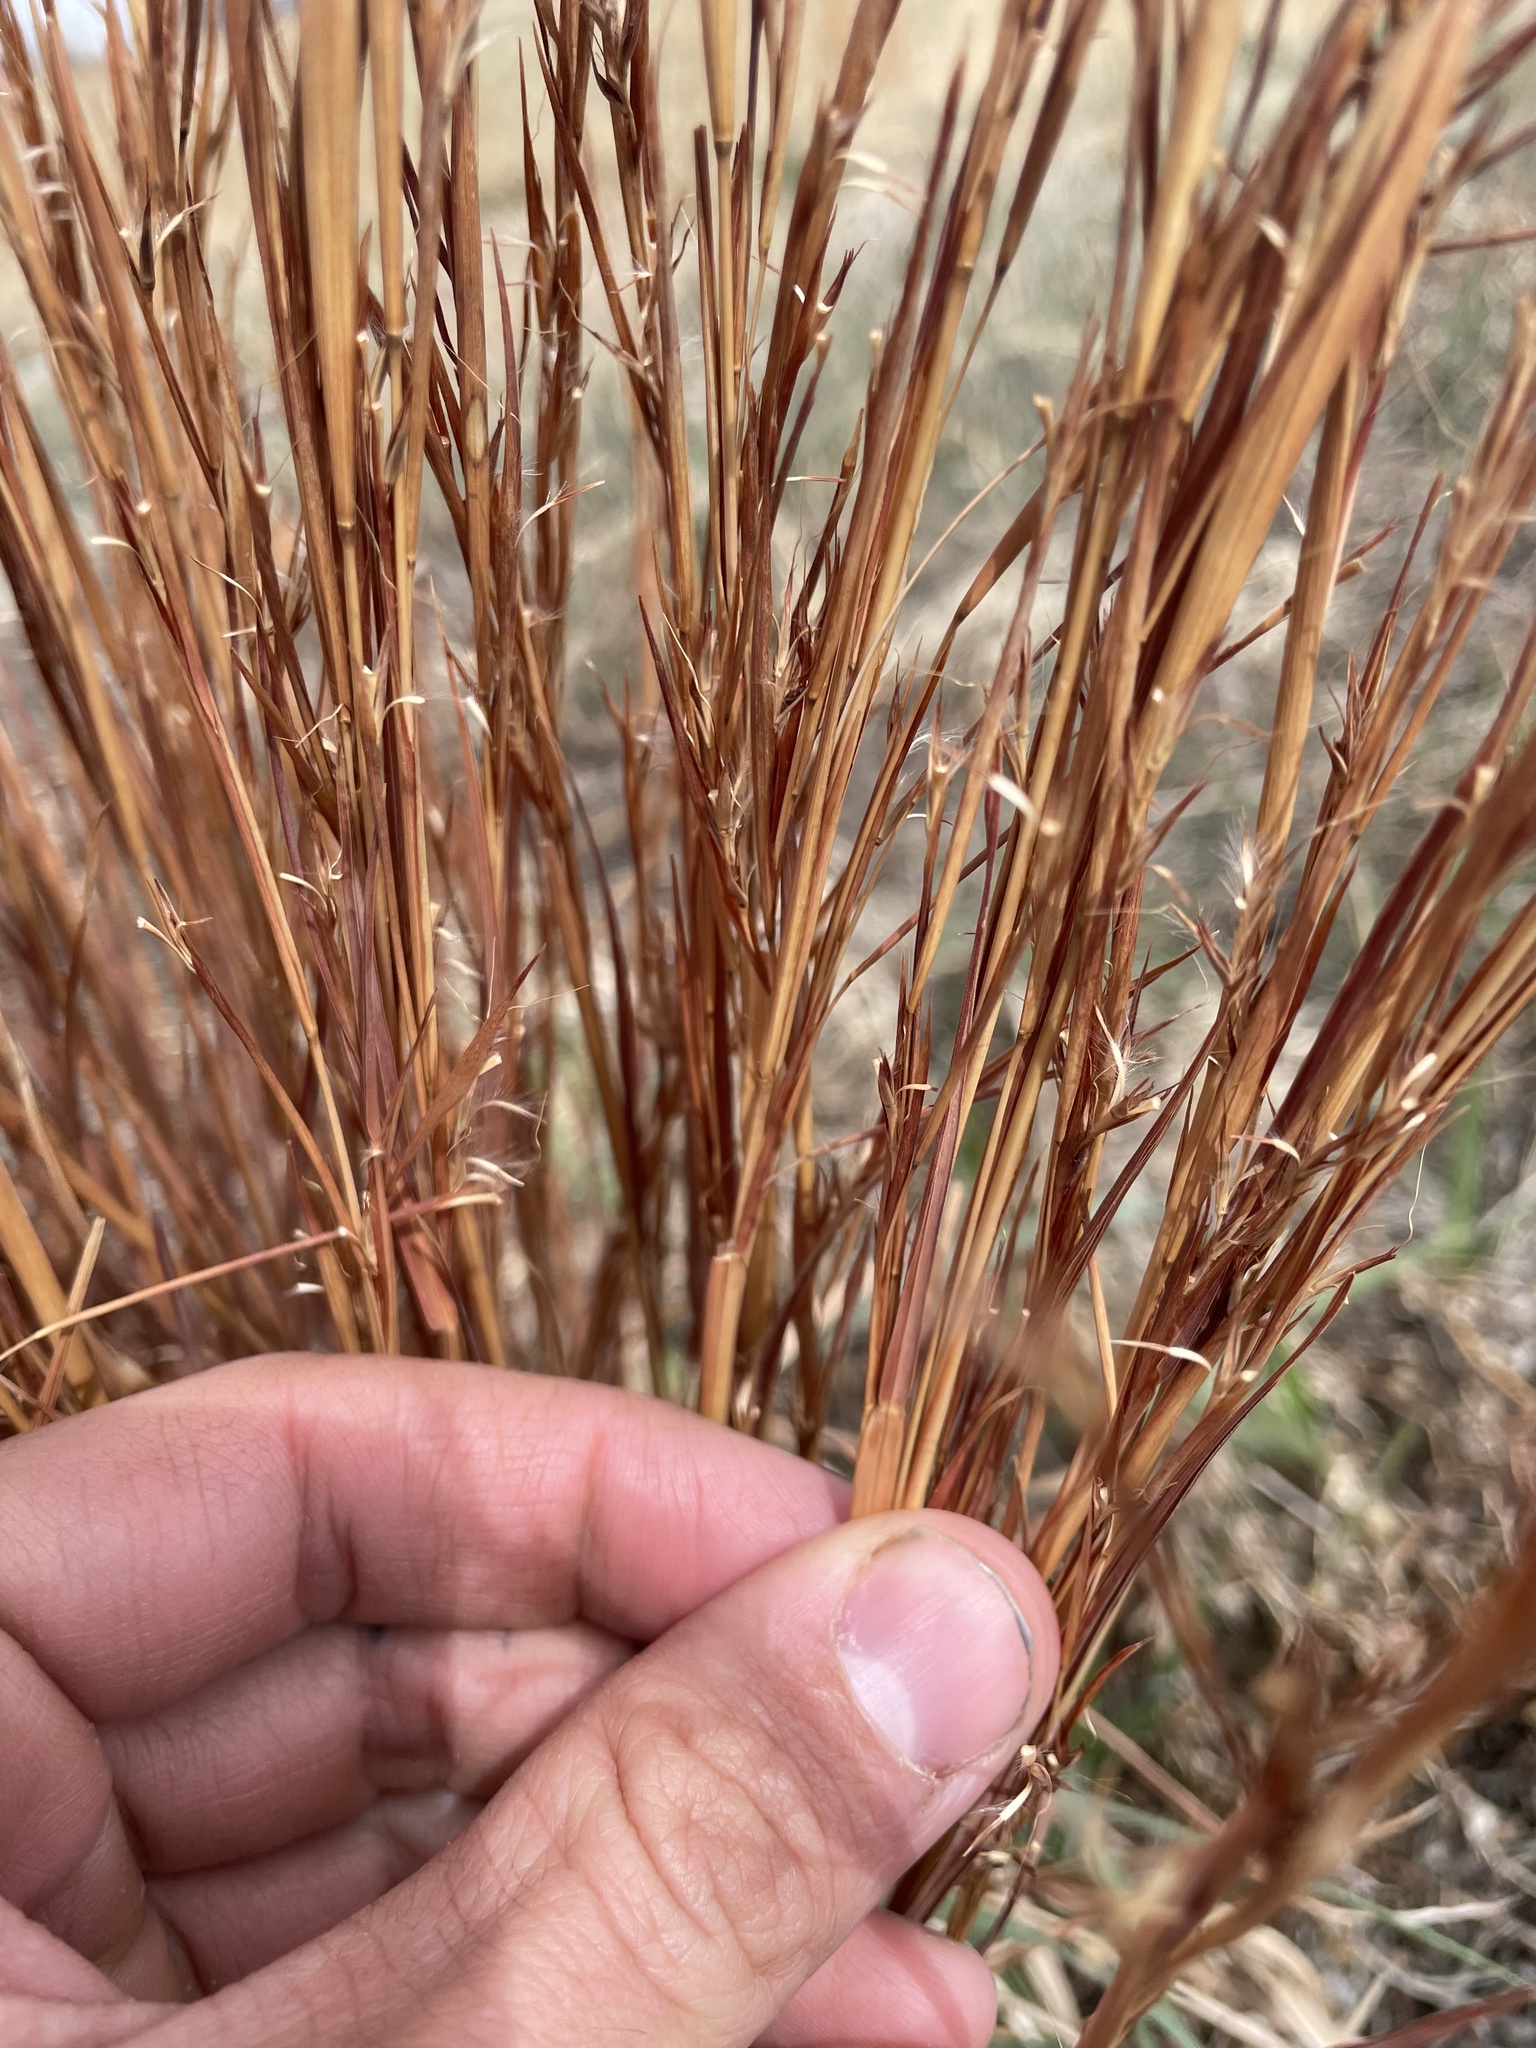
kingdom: Plantae
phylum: Tracheophyta
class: Liliopsida
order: Poales
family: Poaceae
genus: Schizachyrium
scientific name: Schizachyrium scoparium
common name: Little bluestem
